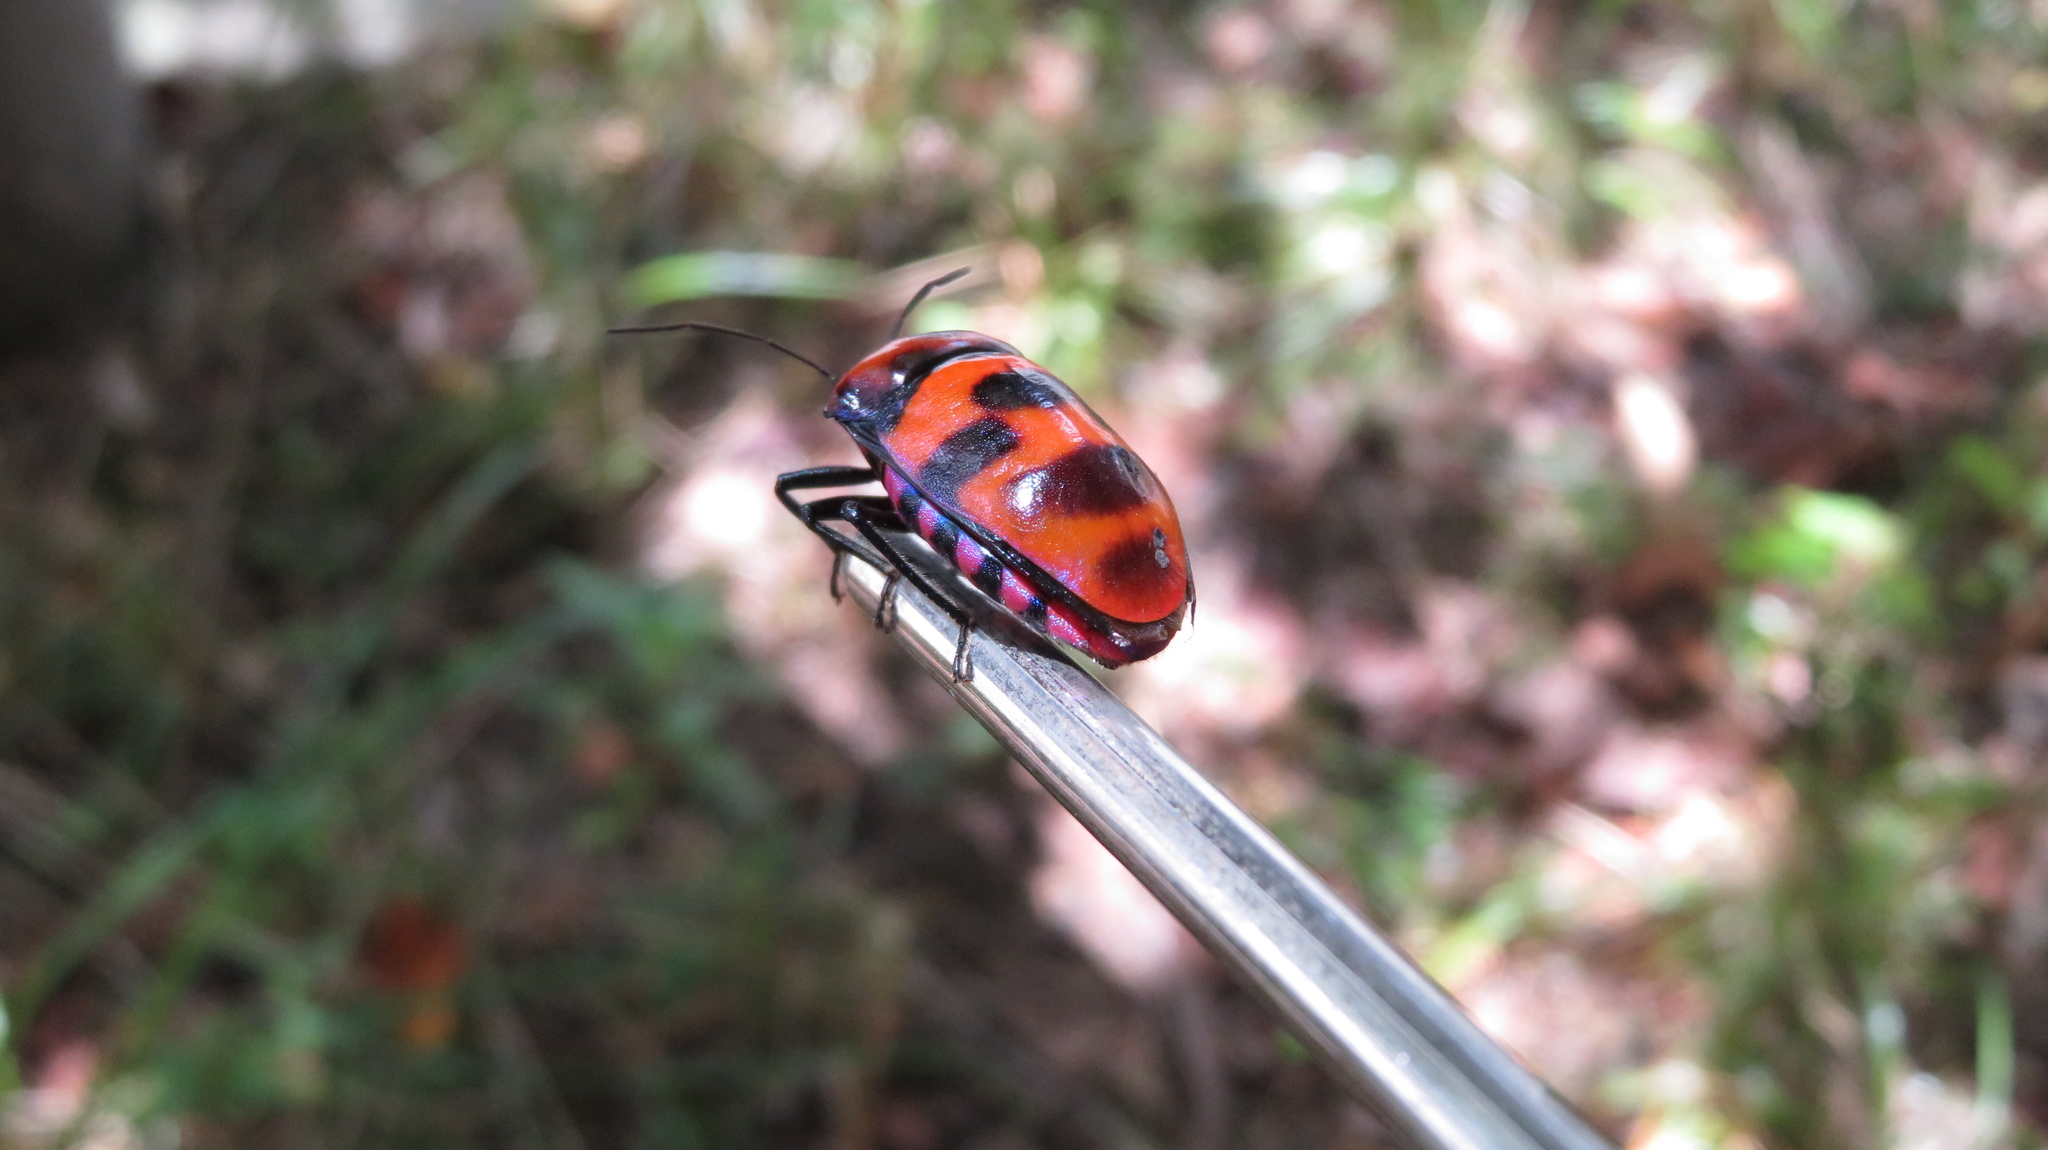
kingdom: Animalia
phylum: Arthropoda
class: Insecta
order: Hemiptera
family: Scutelleridae
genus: Eucorysses
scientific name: Eucorysses grandis
